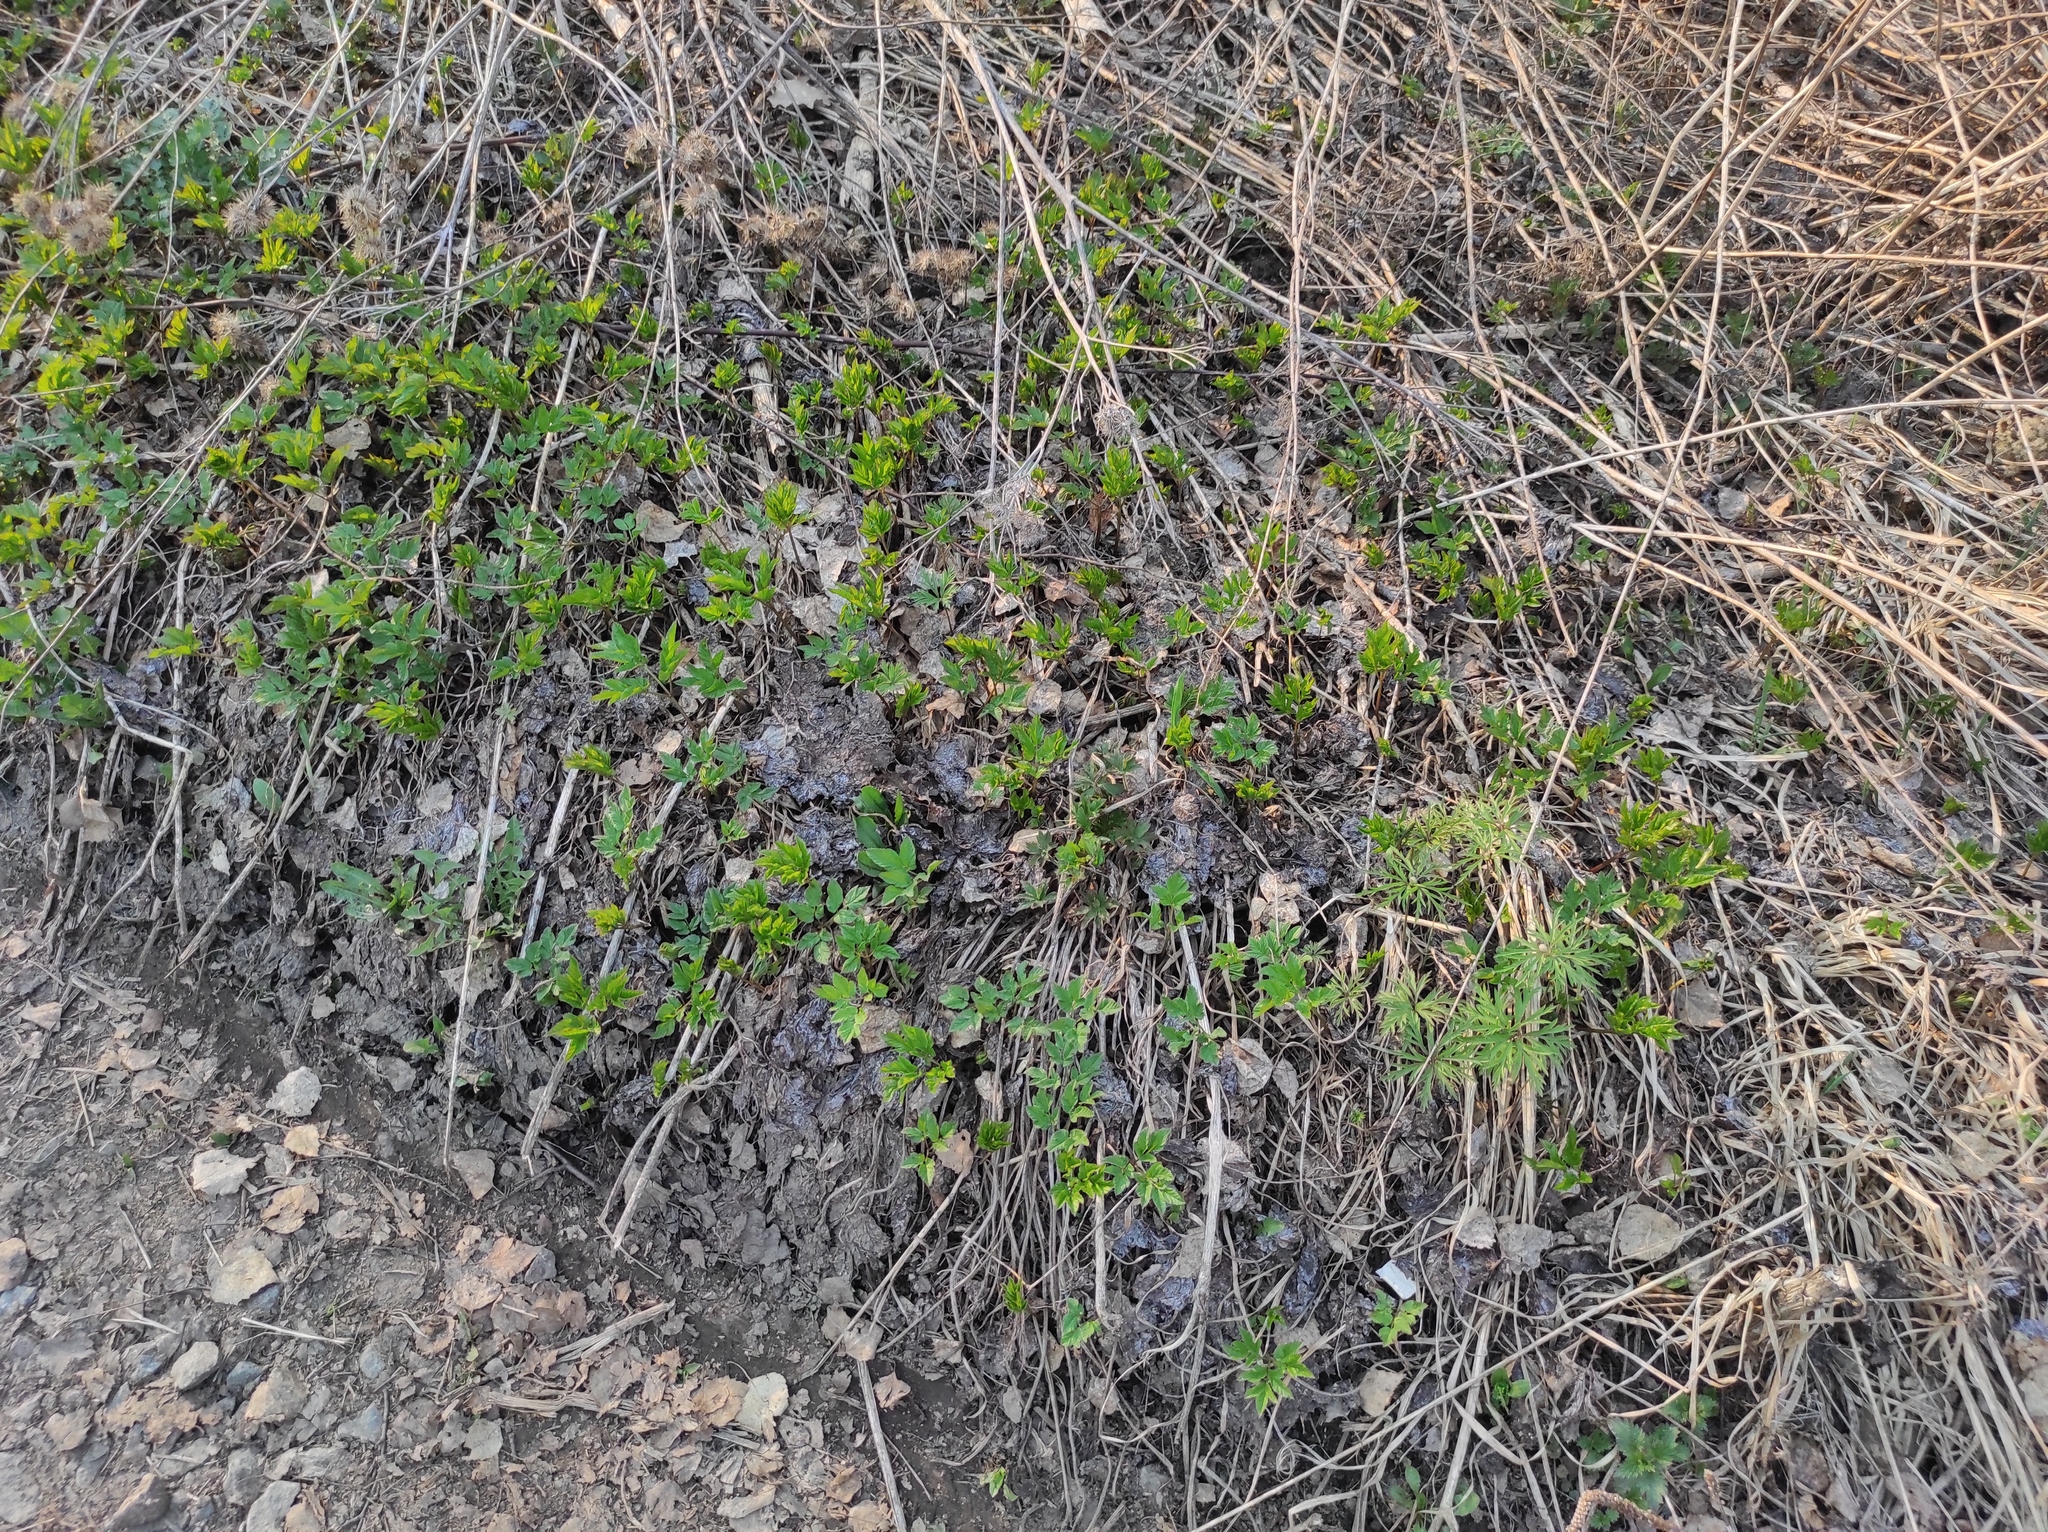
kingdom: Plantae
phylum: Tracheophyta
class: Magnoliopsida
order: Apiales
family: Apiaceae
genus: Aegopodium
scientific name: Aegopodium podagraria
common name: Ground-elder
